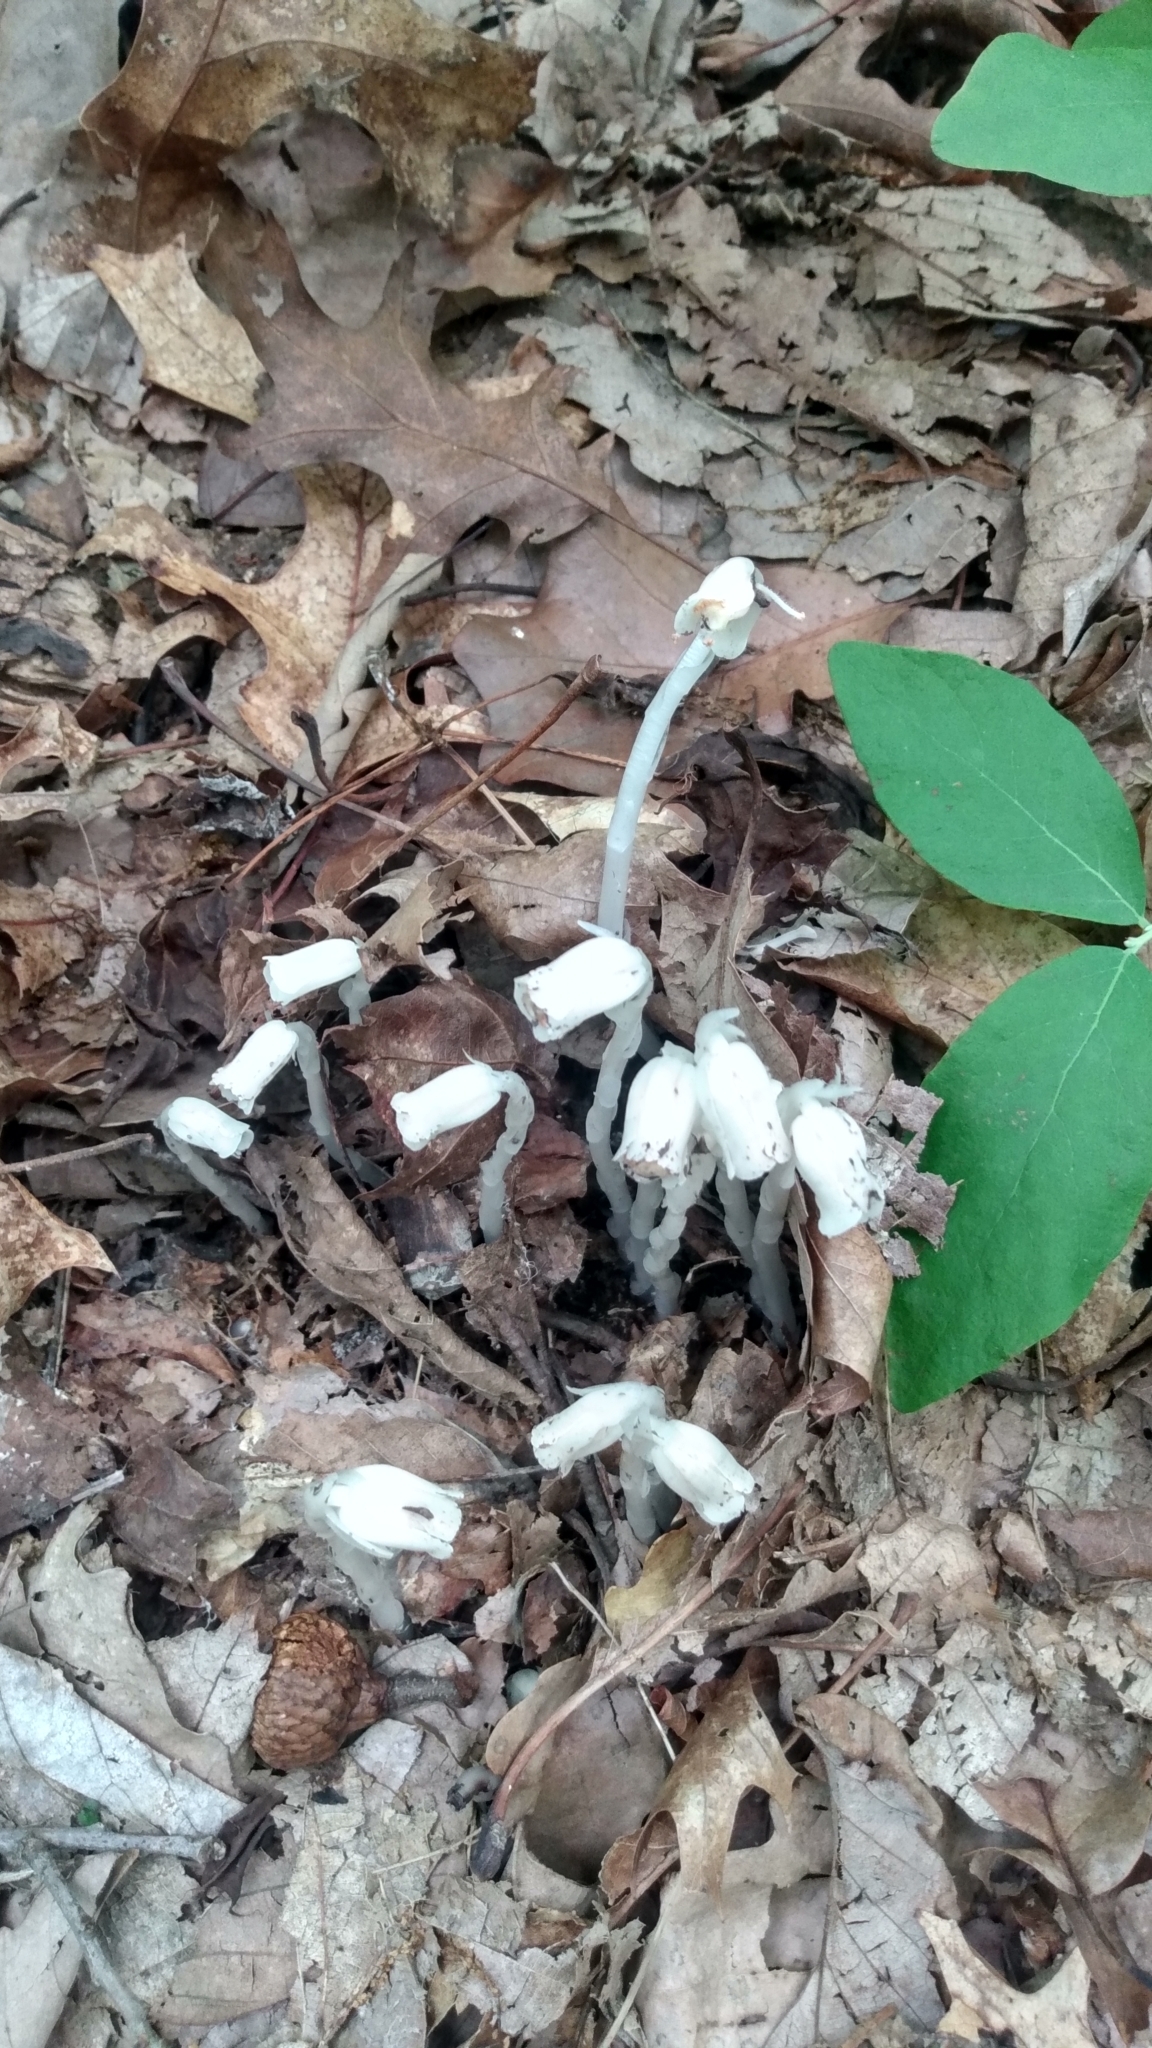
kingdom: Plantae
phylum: Tracheophyta
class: Magnoliopsida
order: Ericales
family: Ericaceae
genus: Monotropa
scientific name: Monotropa uniflora
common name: Convulsion root
